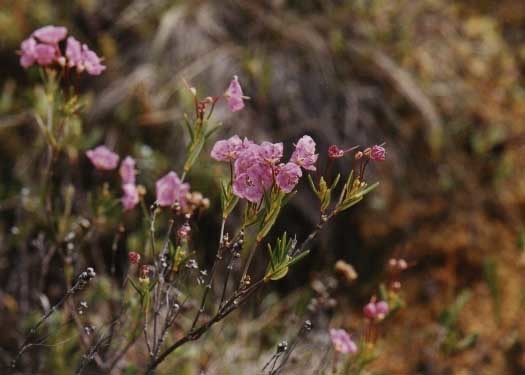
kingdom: Plantae
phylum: Tracheophyta
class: Magnoliopsida
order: Ericales
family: Ericaceae
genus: Kalmia
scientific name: Kalmia polifolia
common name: Bog-laurel
